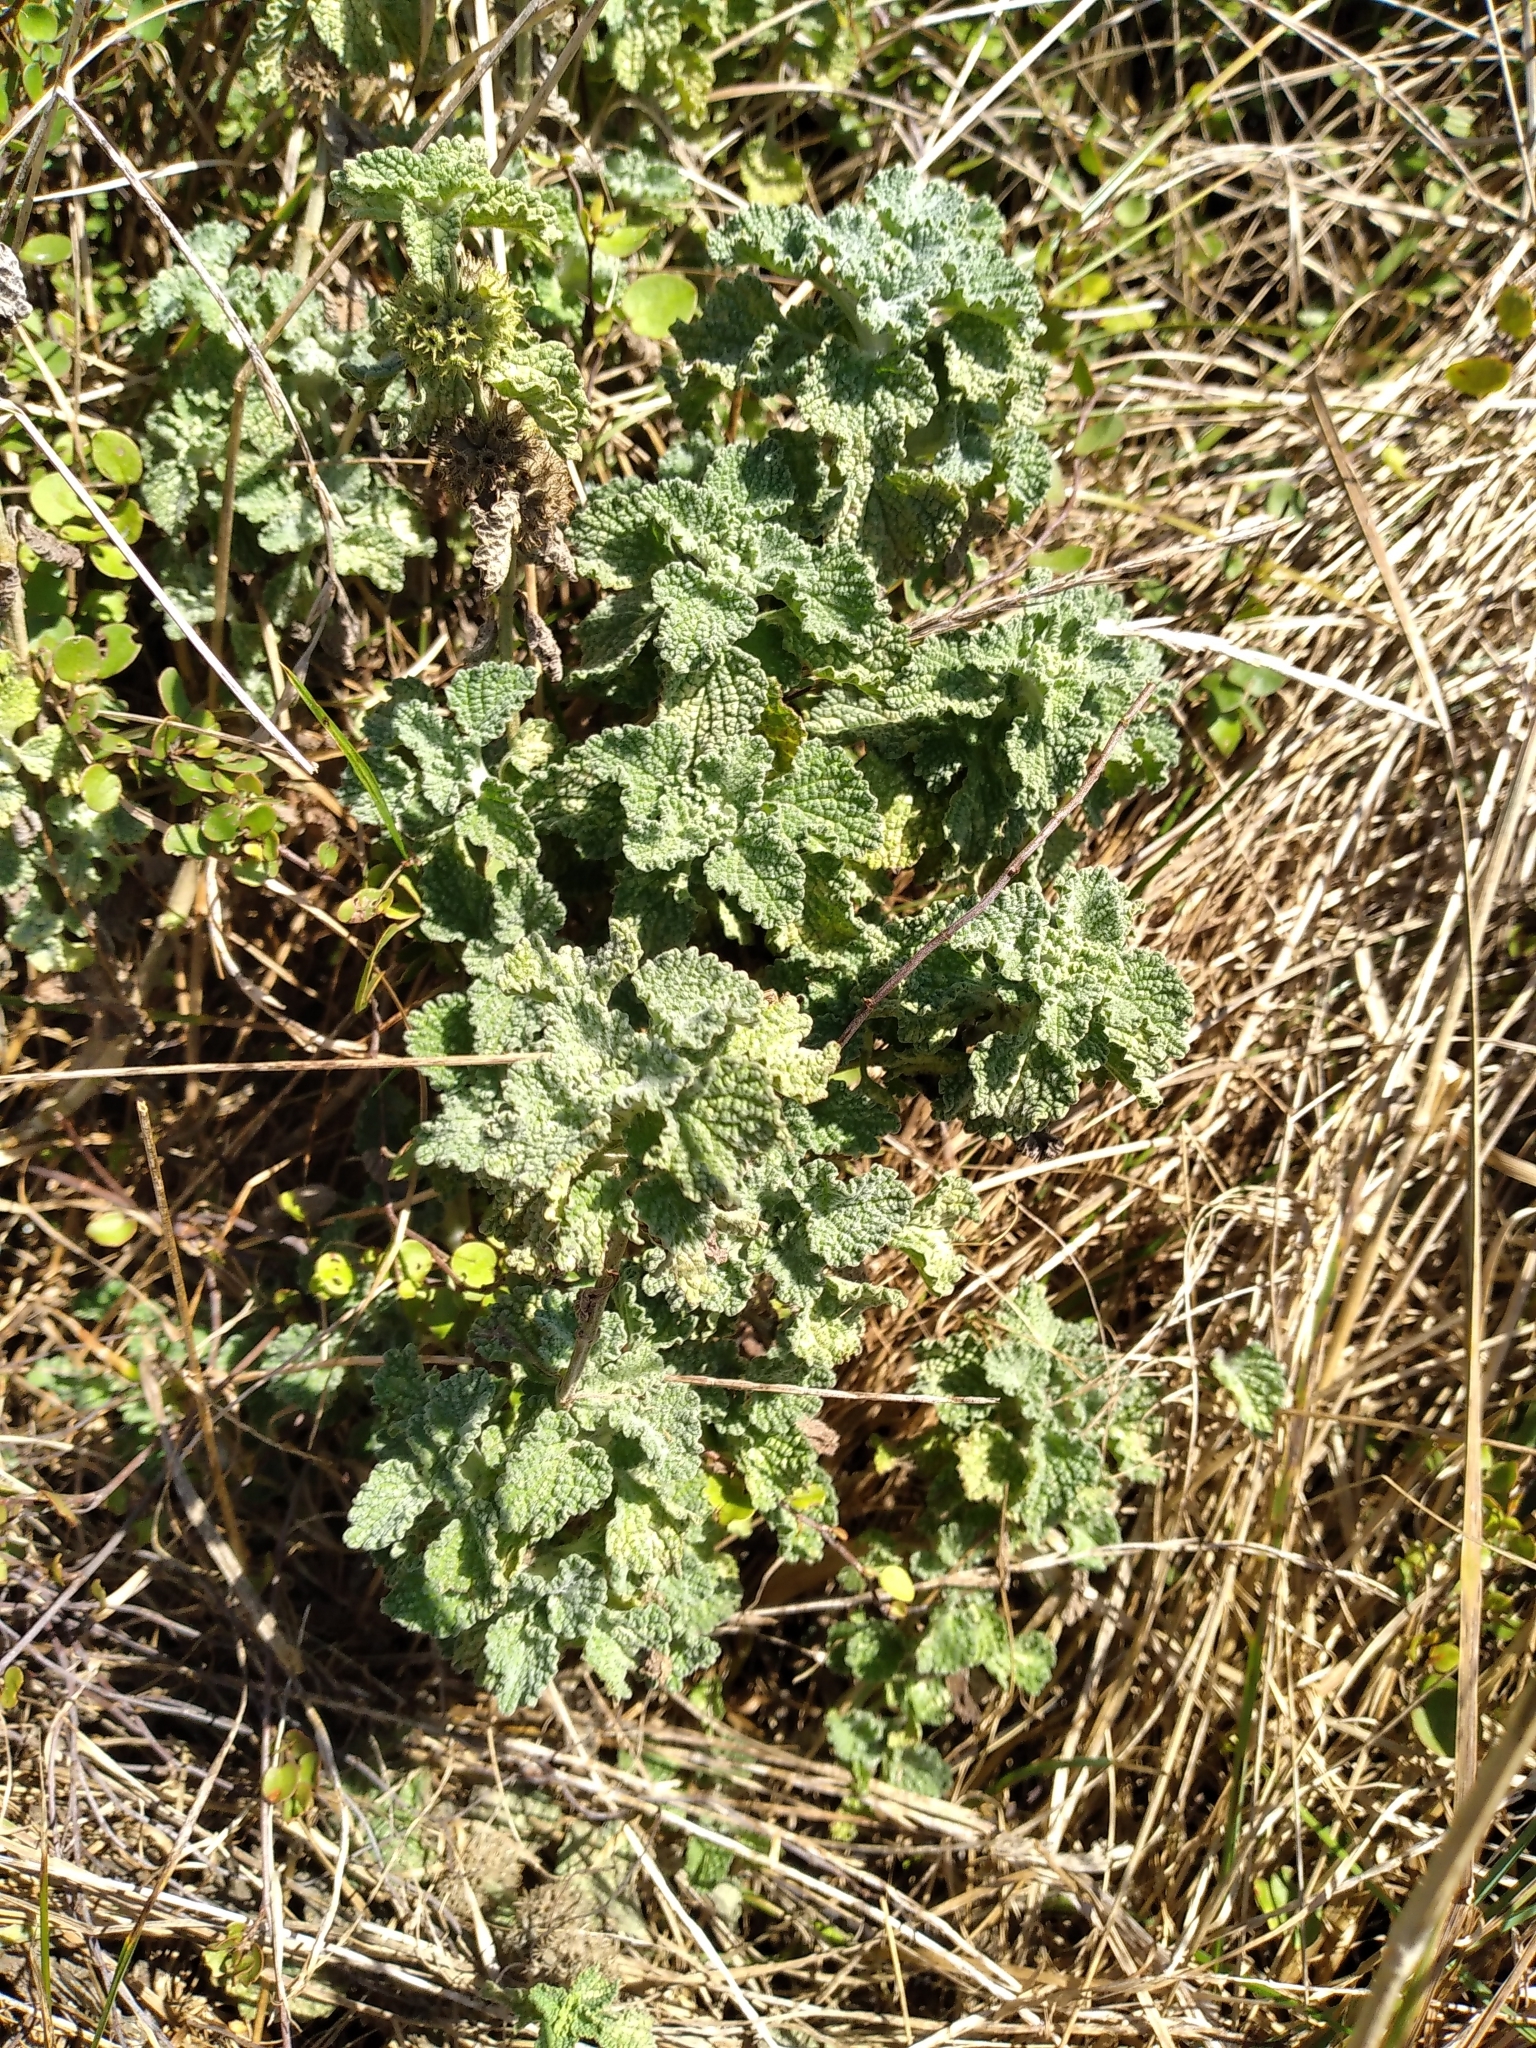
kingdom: Plantae
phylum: Tracheophyta
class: Magnoliopsida
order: Lamiales
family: Lamiaceae
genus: Marrubium
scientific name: Marrubium vulgare
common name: Horehound
